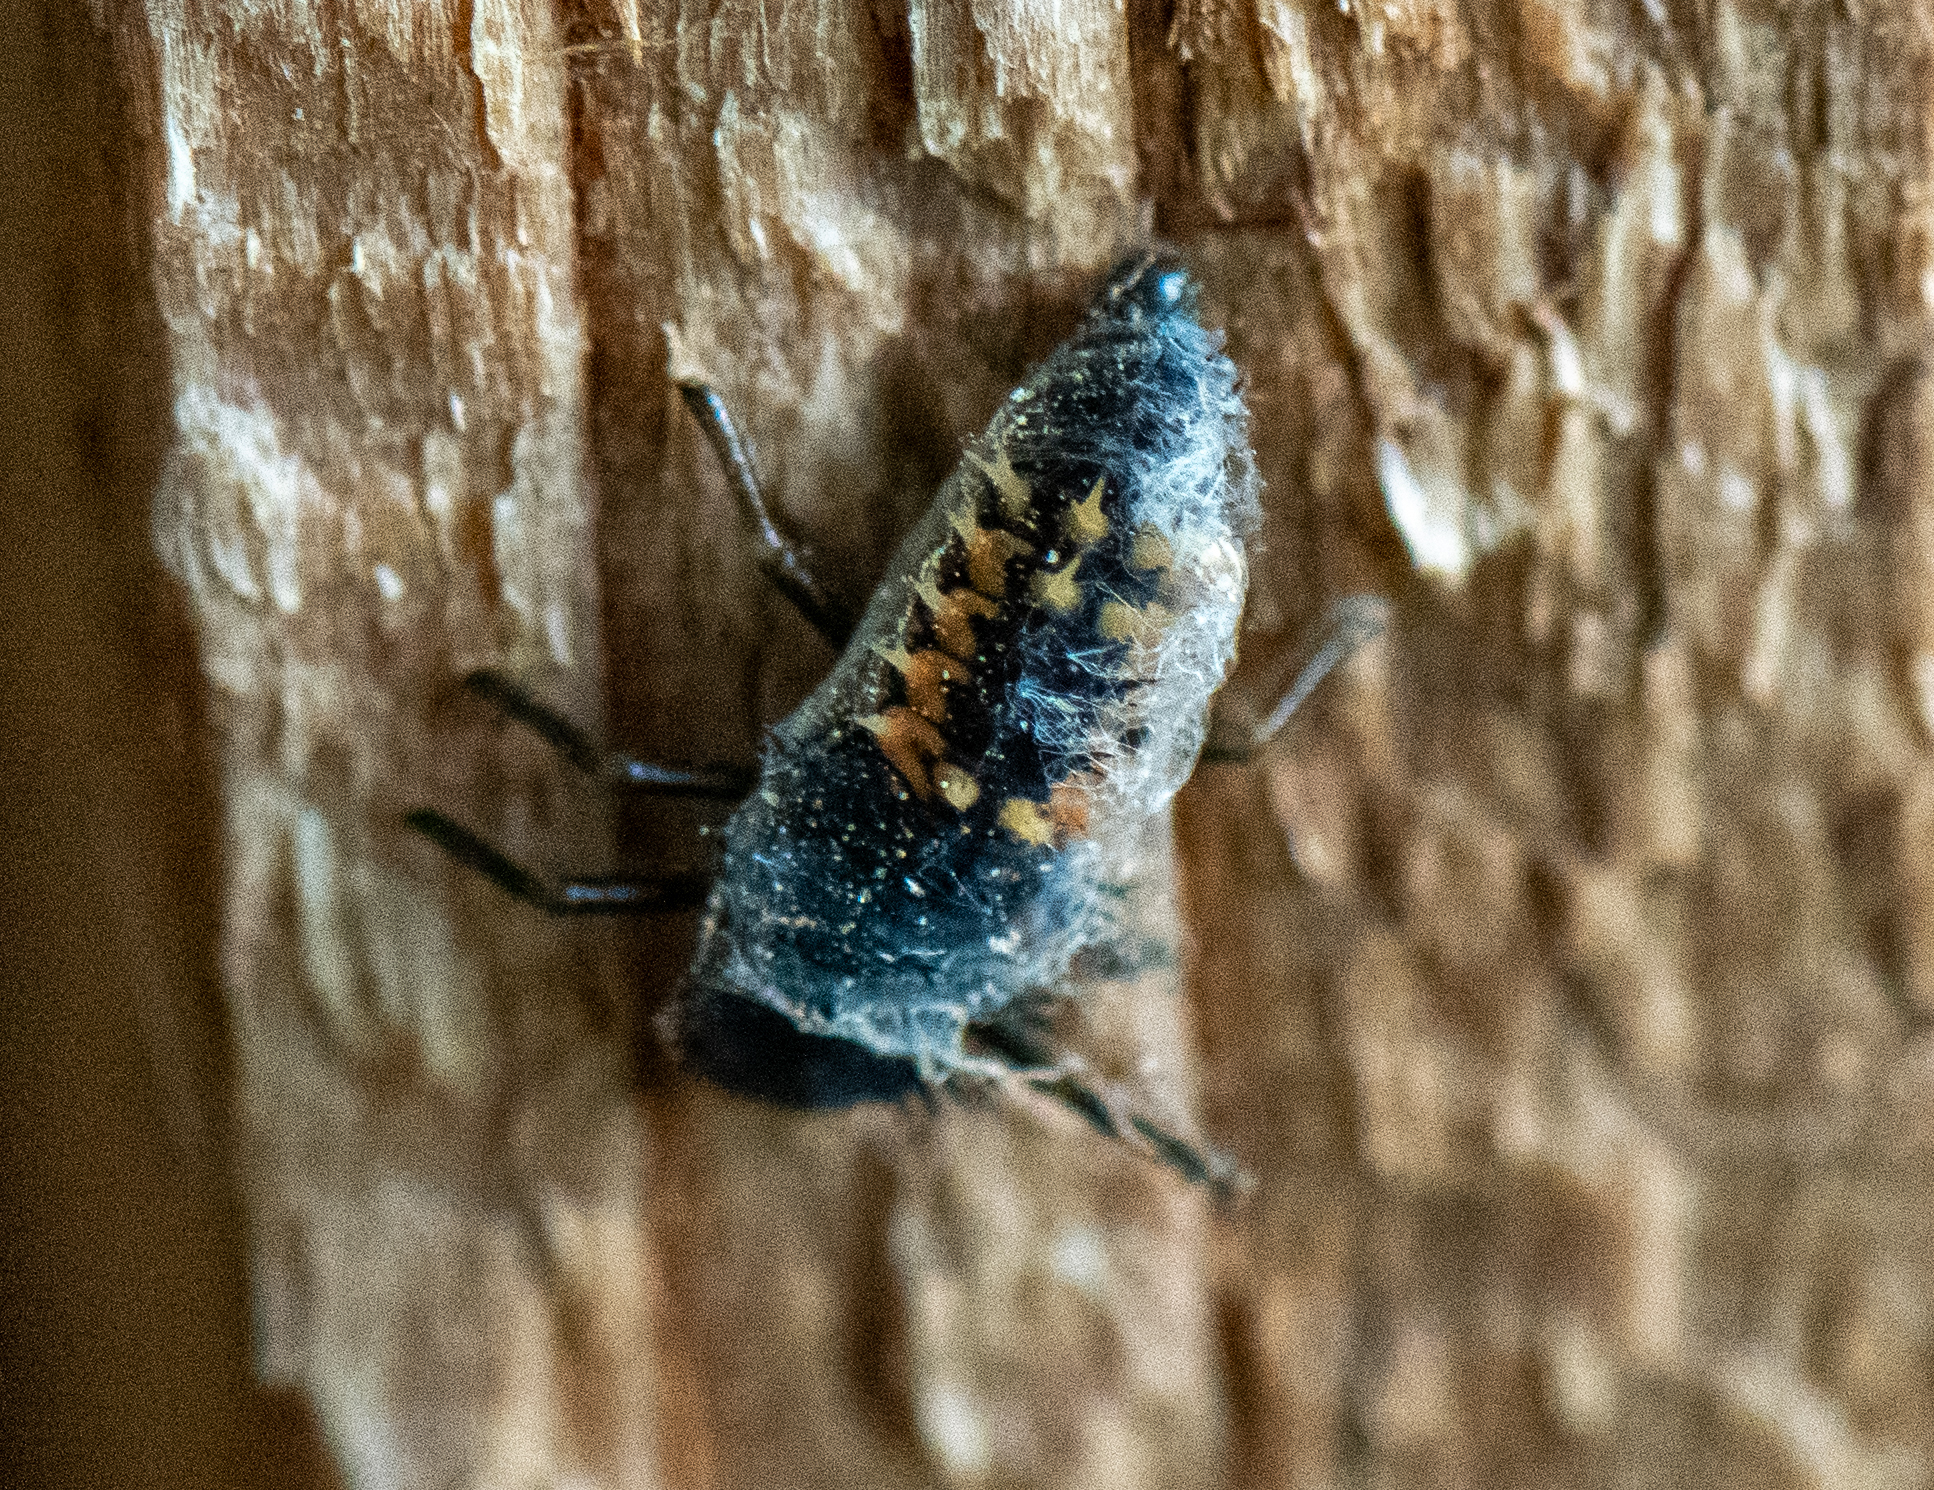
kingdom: Animalia
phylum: Arthropoda
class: Insecta
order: Coleoptera
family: Coccinellidae
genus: Harmonia
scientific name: Harmonia axyridis
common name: Harlequin ladybird
